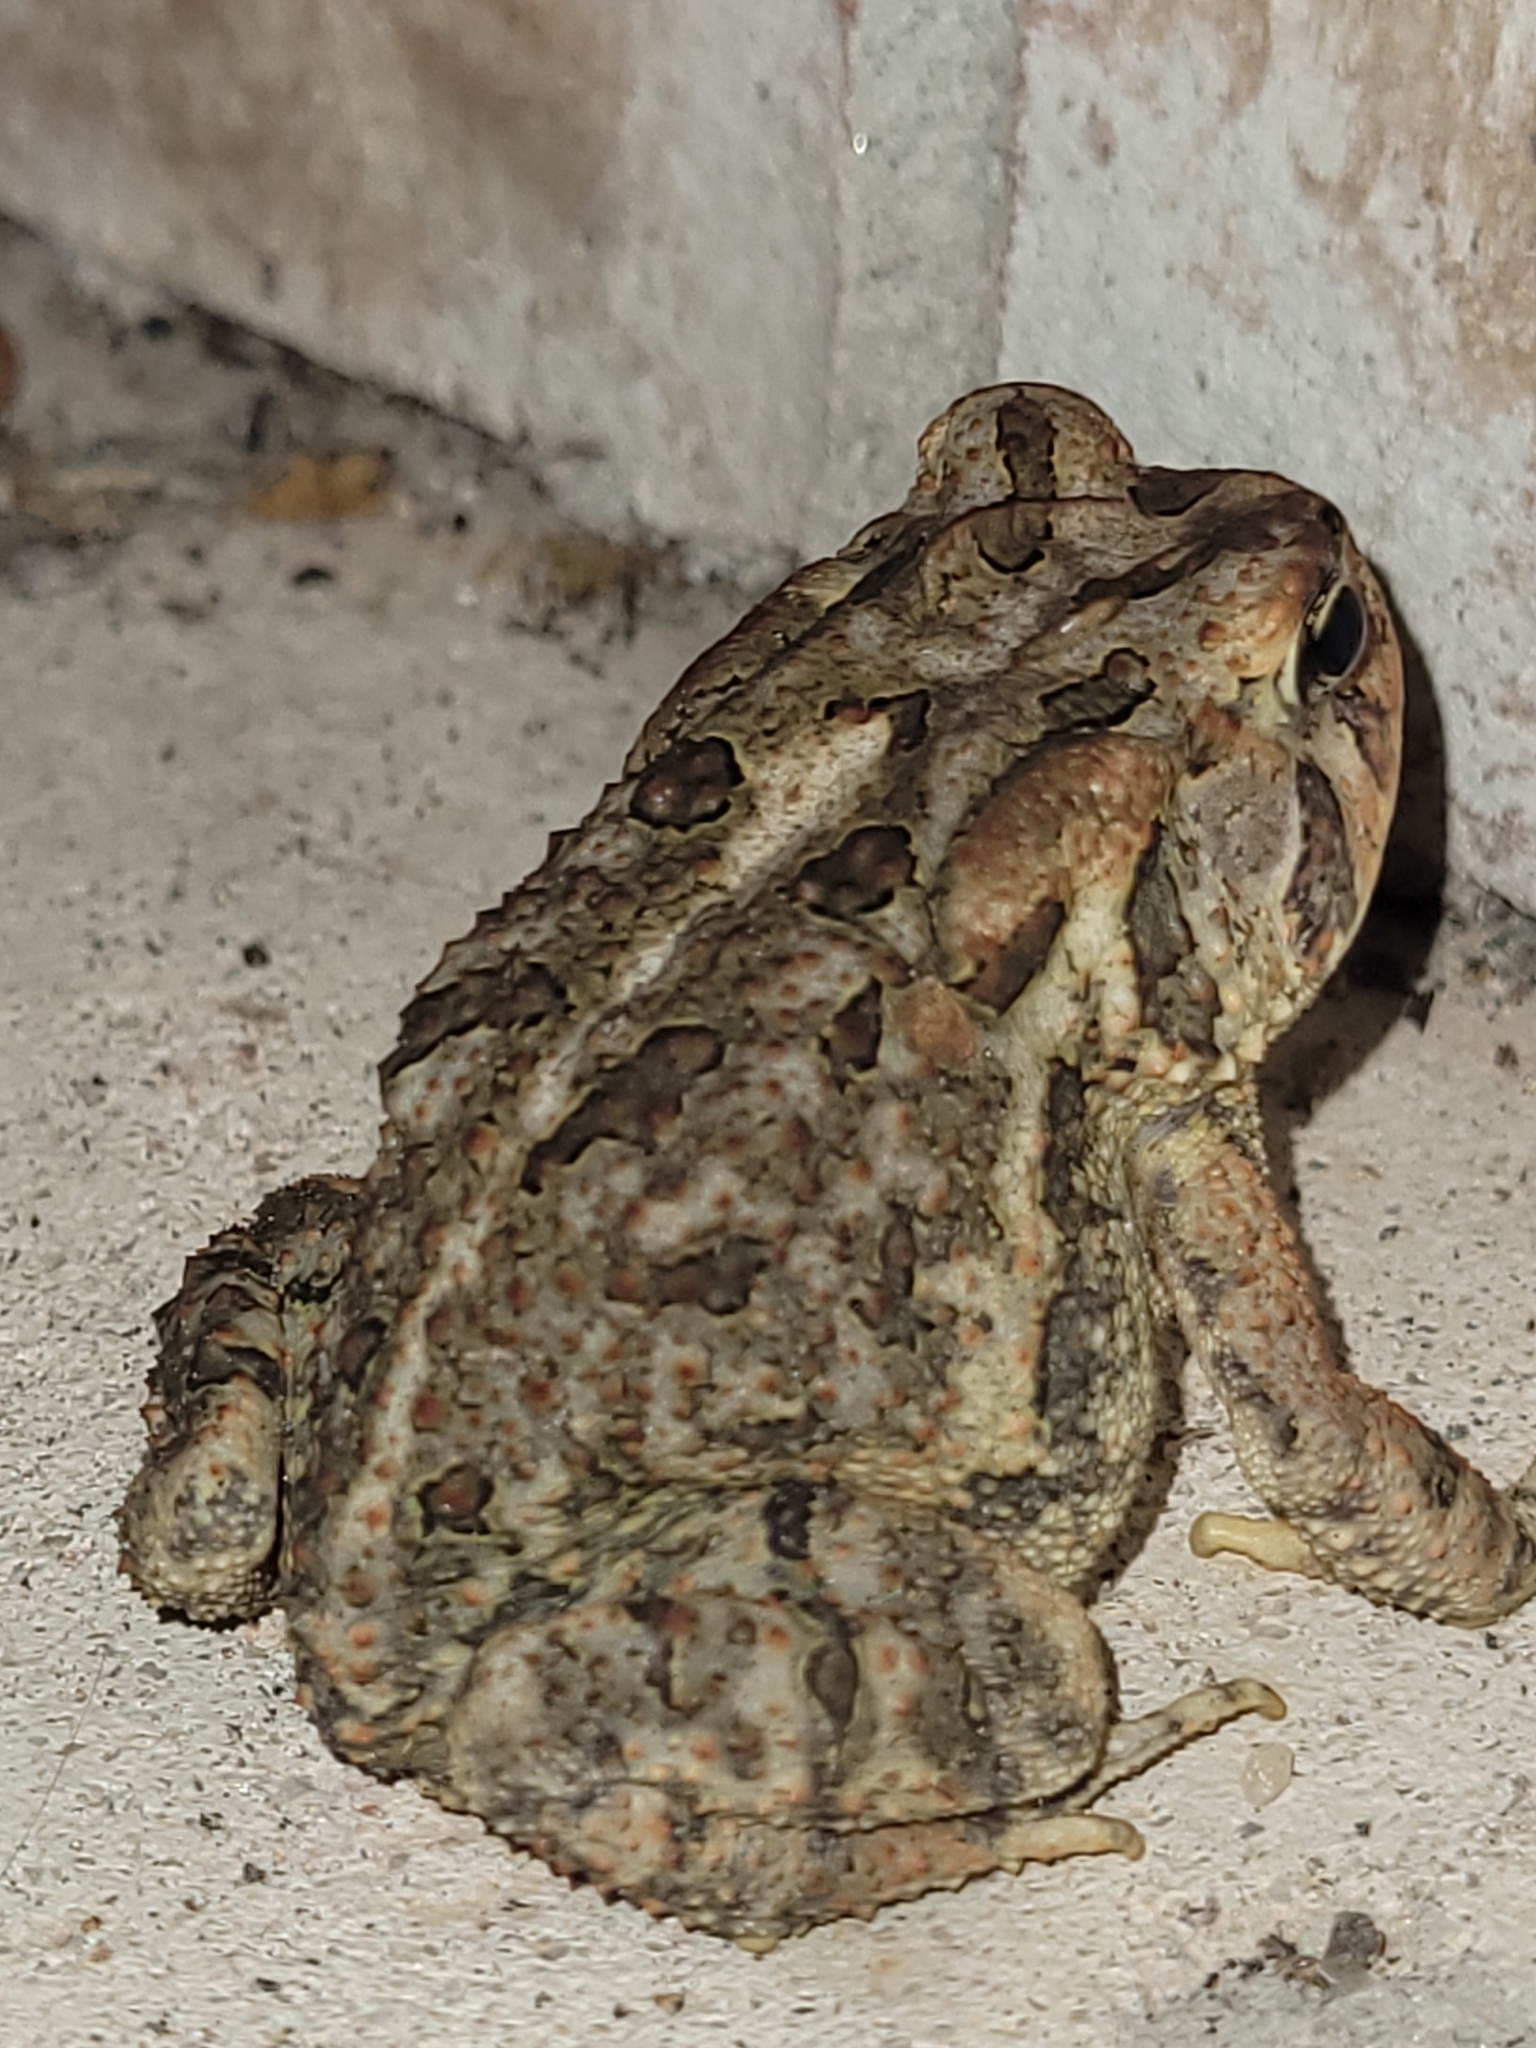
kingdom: Animalia
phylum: Chordata
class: Amphibia
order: Anura
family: Bufonidae
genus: Anaxyrus
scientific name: Anaxyrus terrestris
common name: Southern toad
